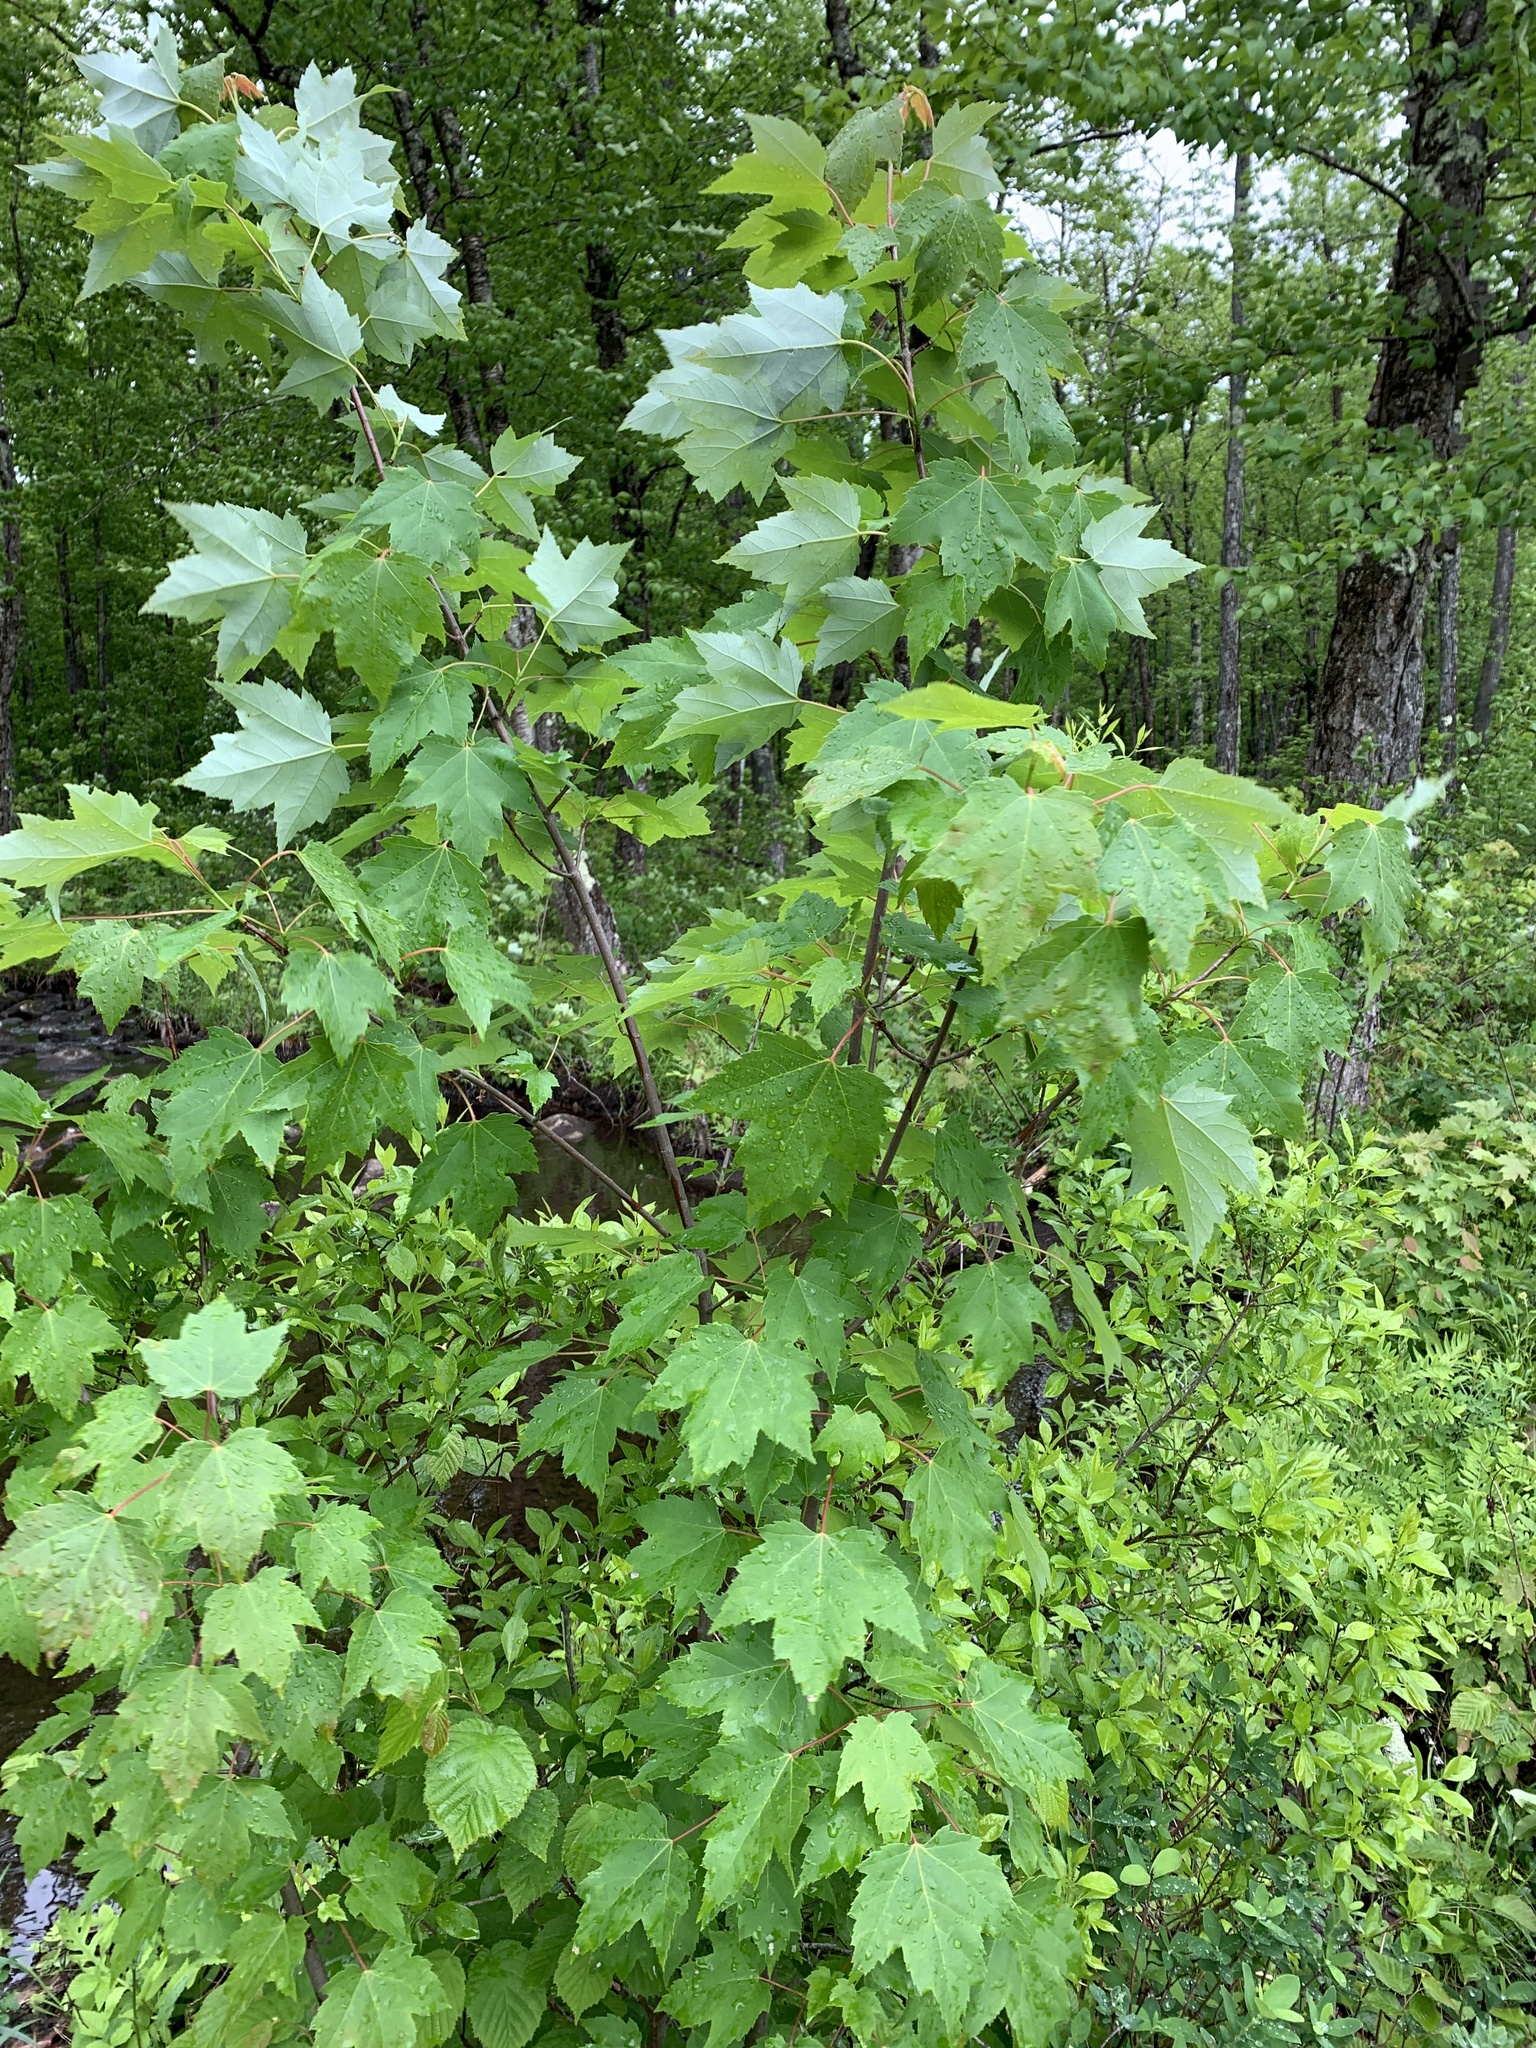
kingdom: Plantae
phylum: Tracheophyta
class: Magnoliopsida
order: Sapindales
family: Sapindaceae
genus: Acer
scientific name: Acer rubrum
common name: Red maple
